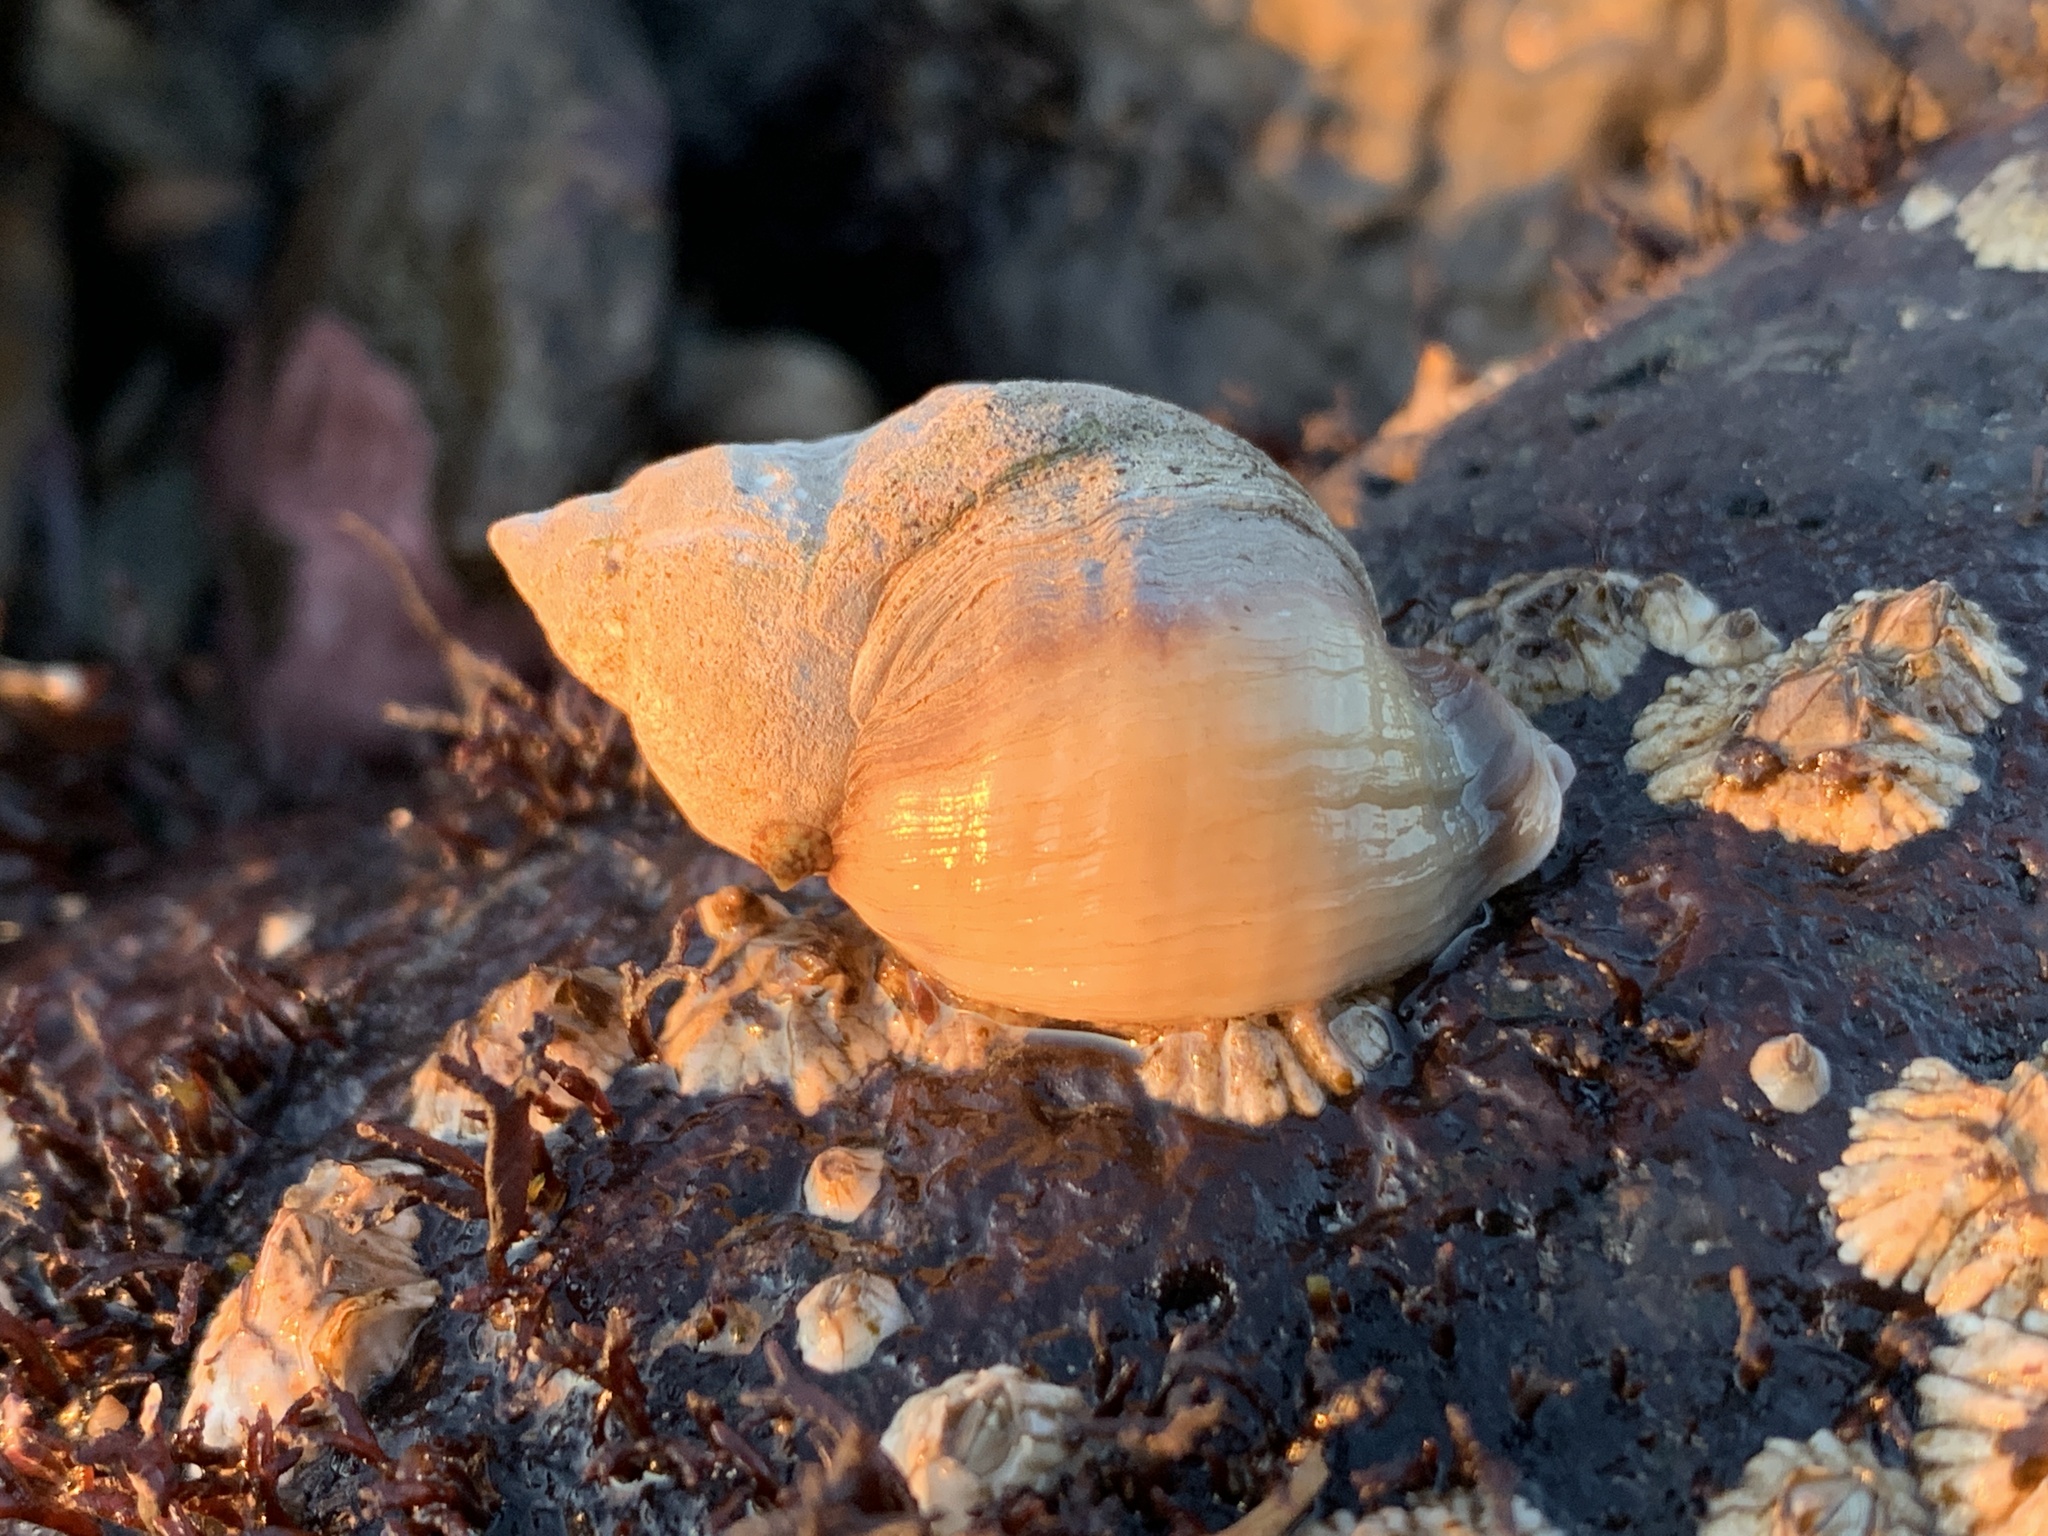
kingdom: Animalia
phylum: Mollusca
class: Gastropoda
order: Neogastropoda
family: Muricidae
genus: Nucella
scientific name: Nucella lapillus
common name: Dog whelk
